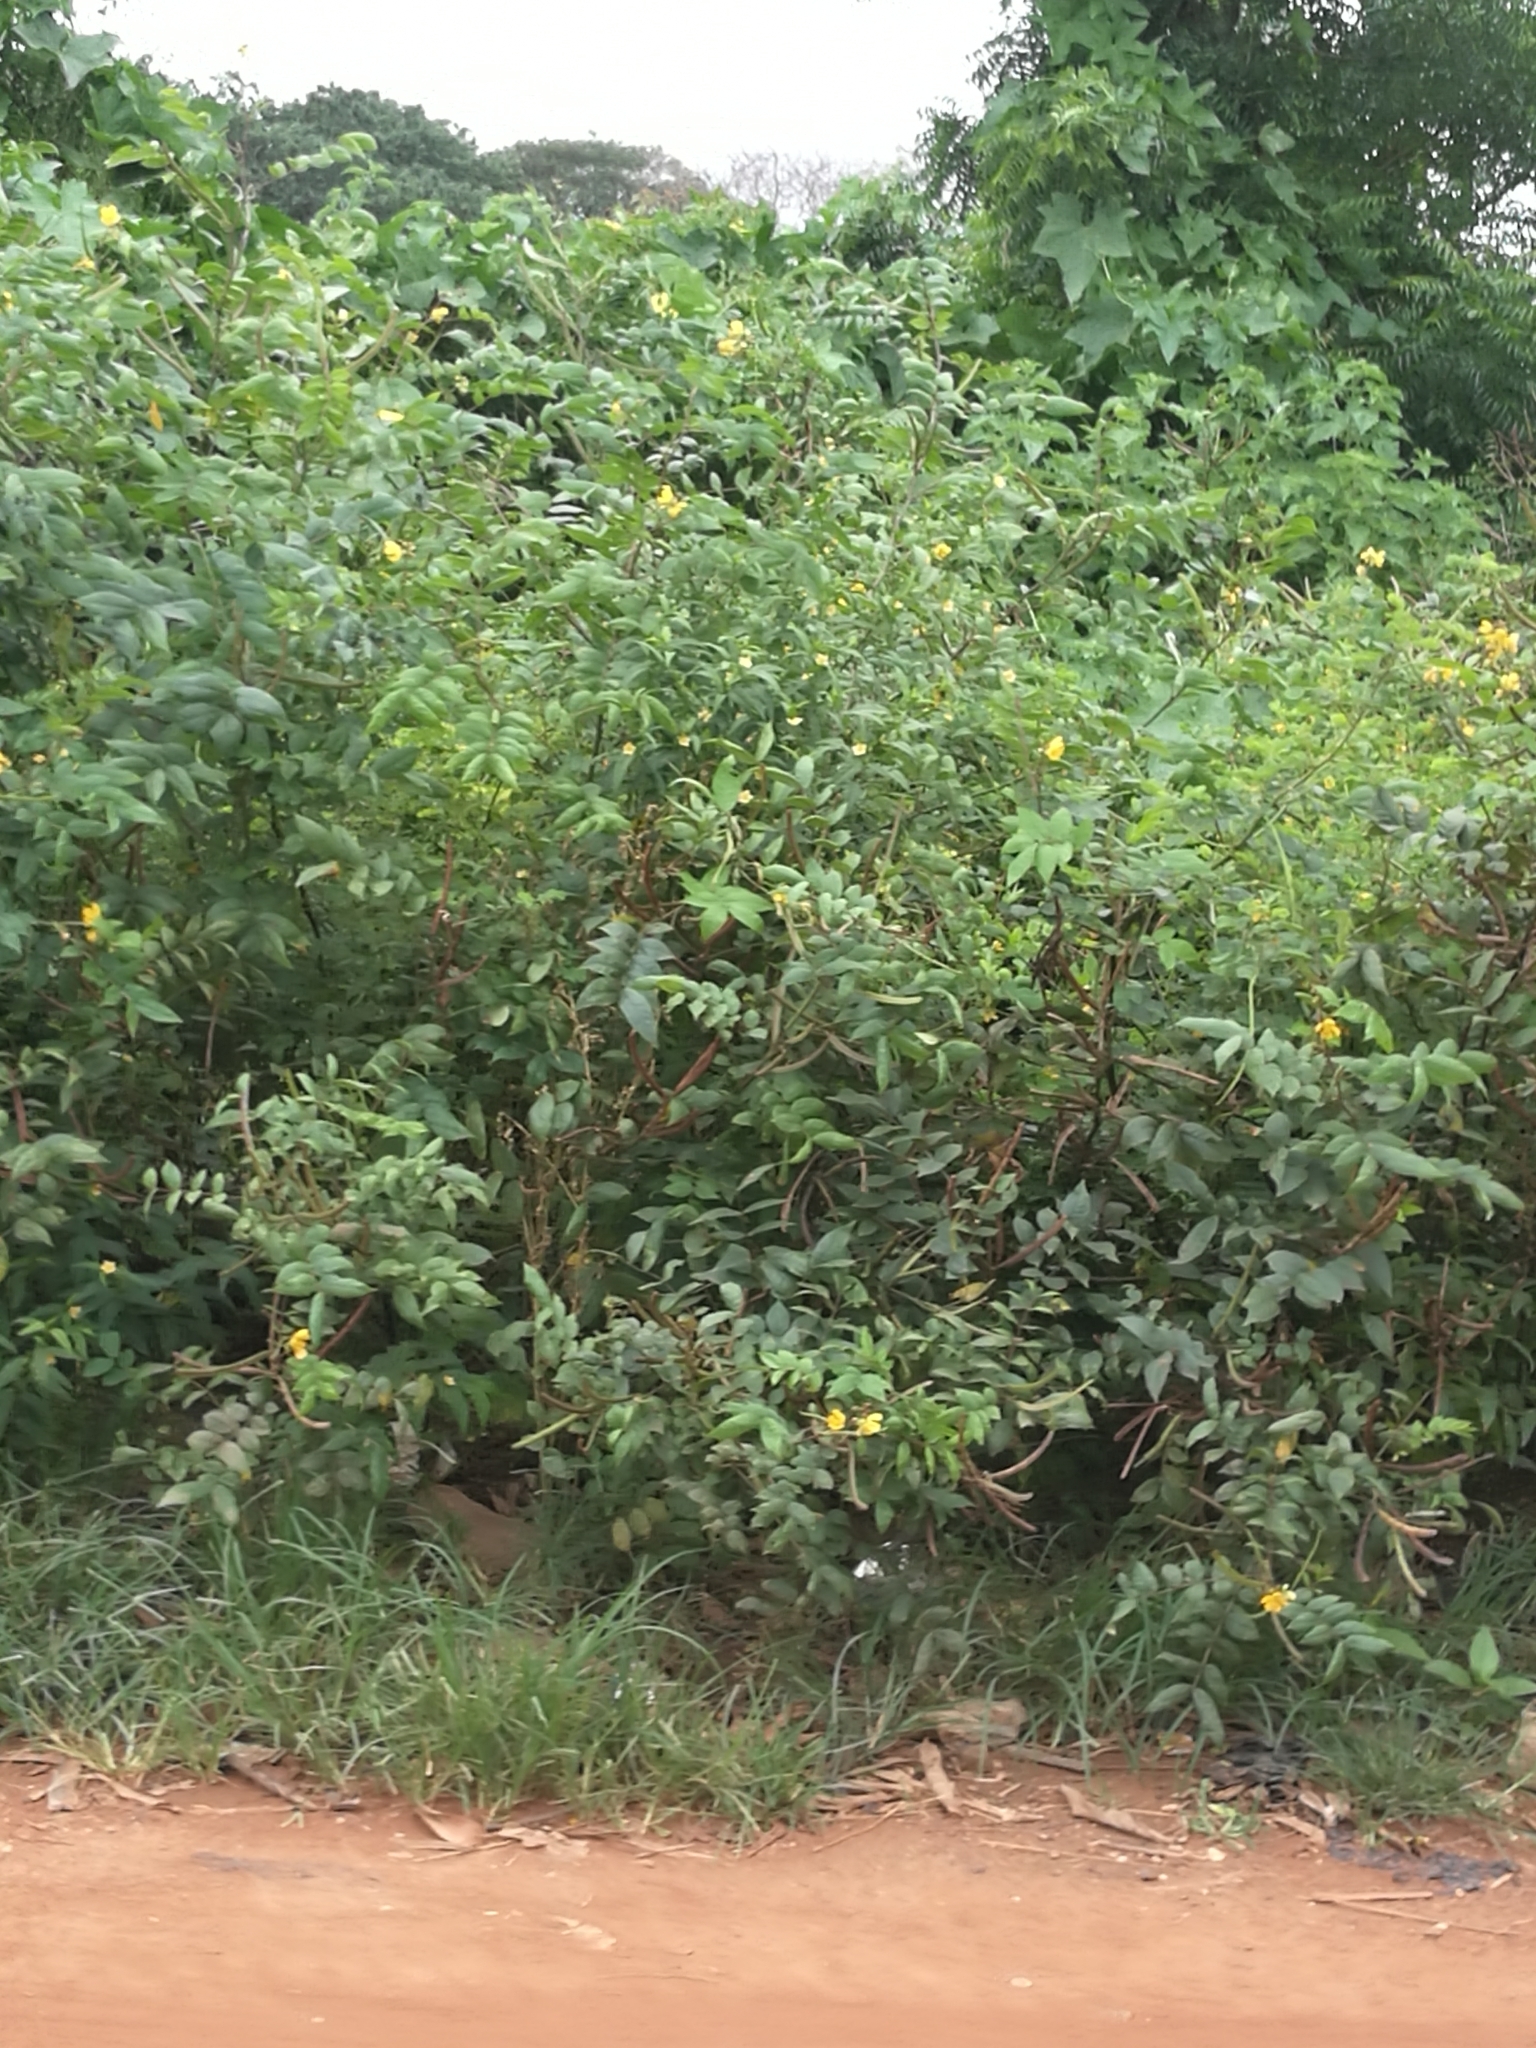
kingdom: Plantae
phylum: Tracheophyta
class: Magnoliopsida
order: Fabales
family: Fabaceae
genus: Senna
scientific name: Senna occidentalis
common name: Septicweed
